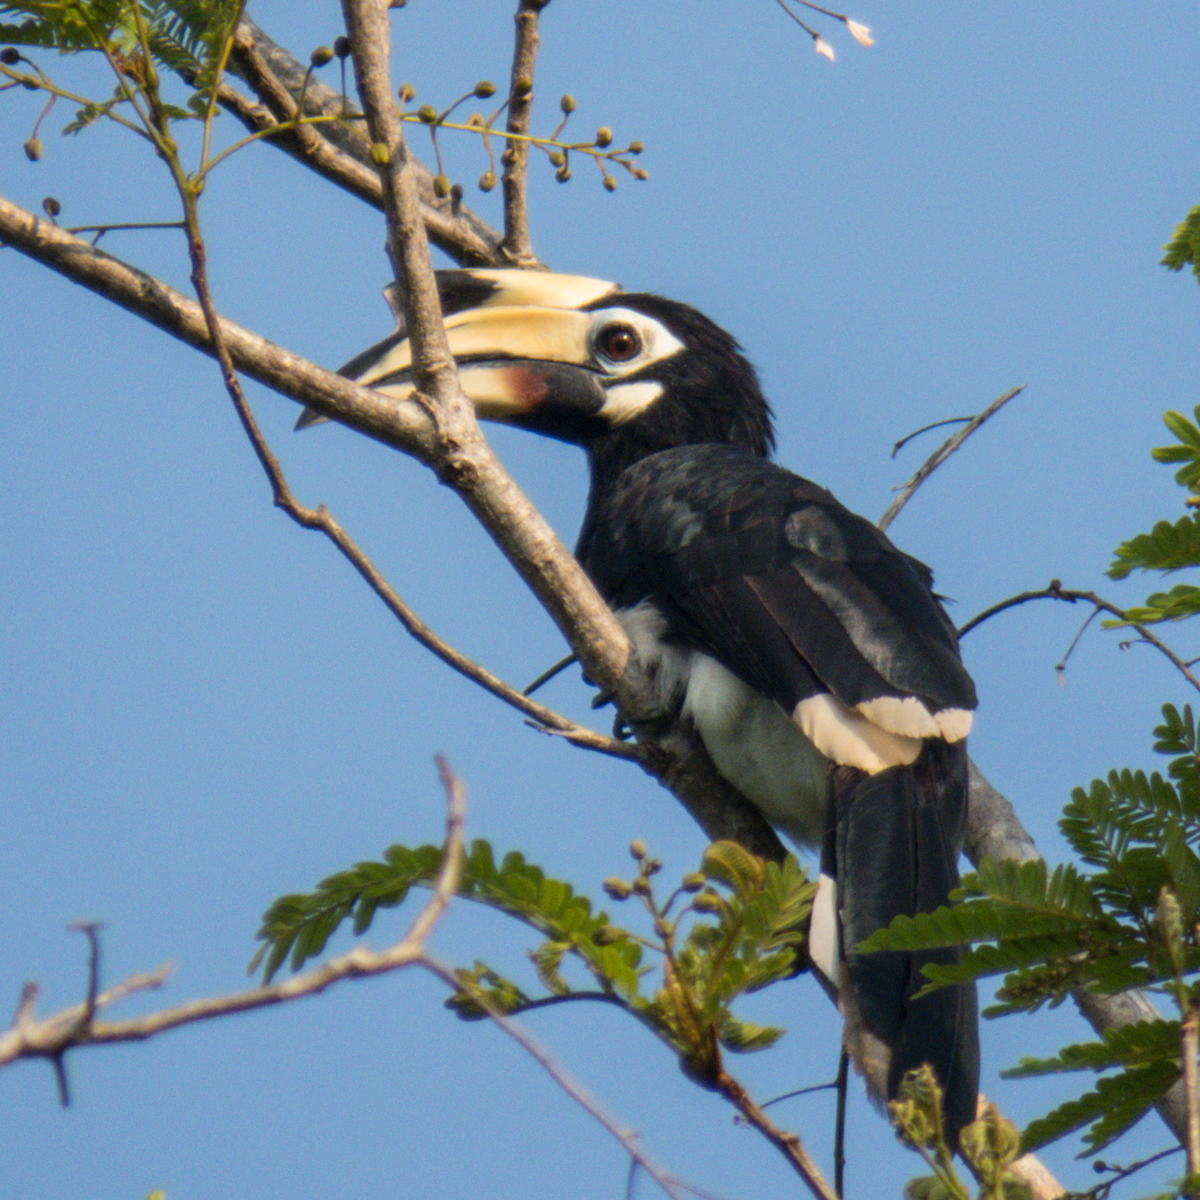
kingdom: Animalia
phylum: Chordata
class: Aves
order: Bucerotiformes
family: Bucerotidae
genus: Anthracoceros
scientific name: Anthracoceros albirostris
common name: Oriental pied-hornbill
